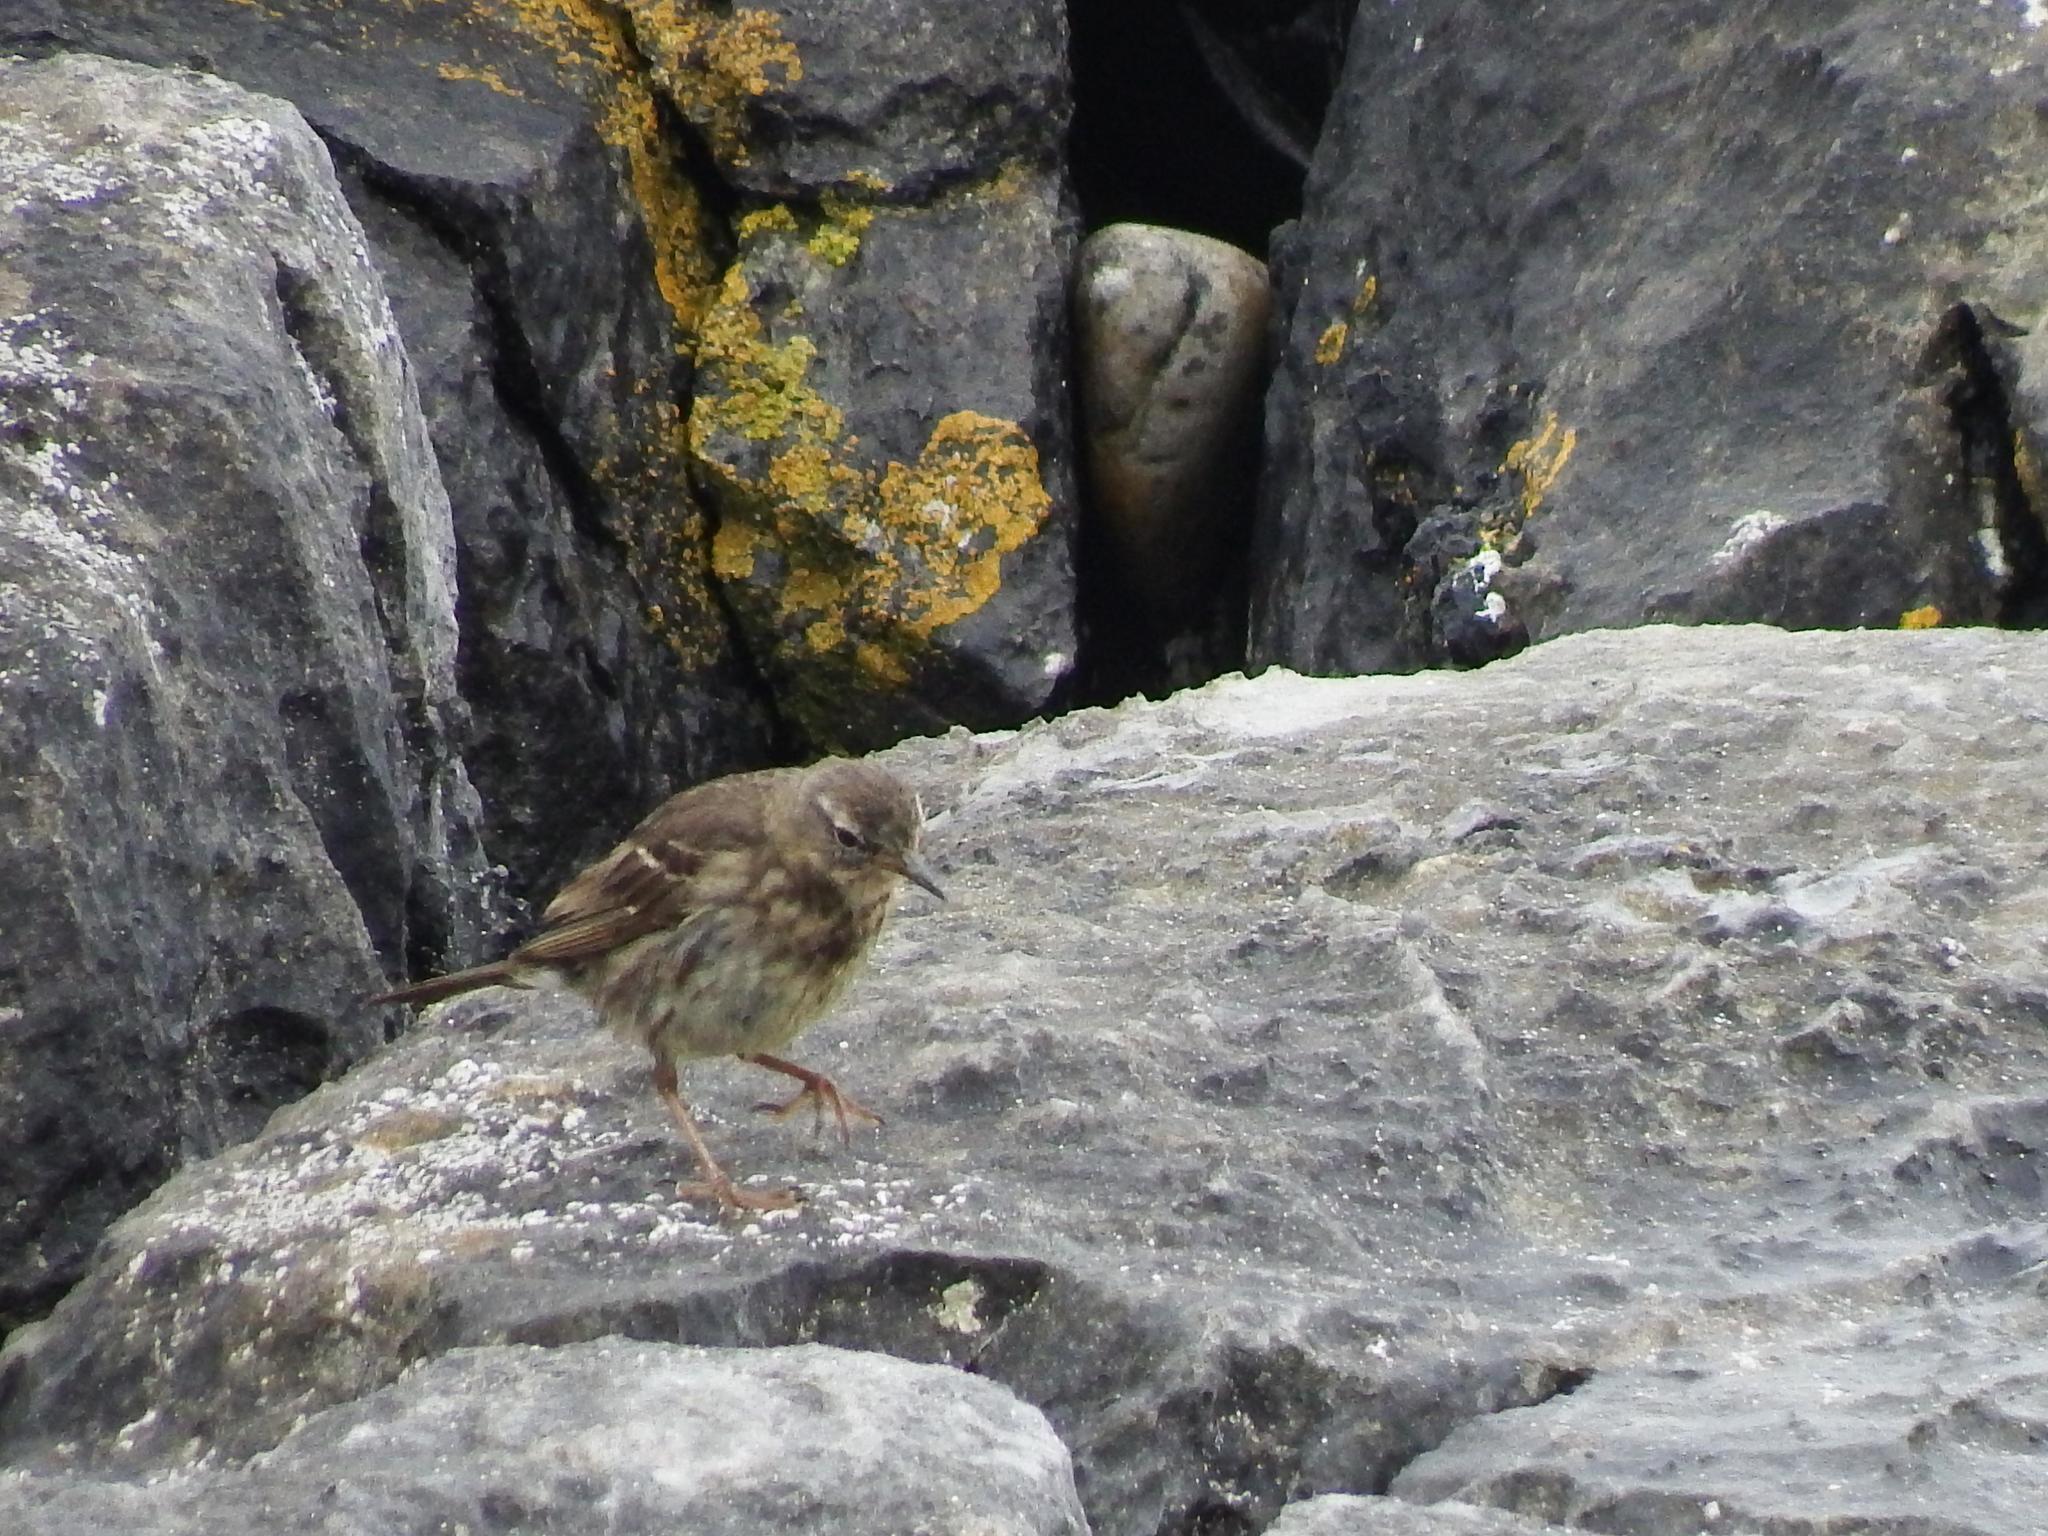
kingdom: Animalia
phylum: Chordata
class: Aves
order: Passeriformes
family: Motacillidae
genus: Anthus
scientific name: Anthus petrosus
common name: Eurasian rock pipit
